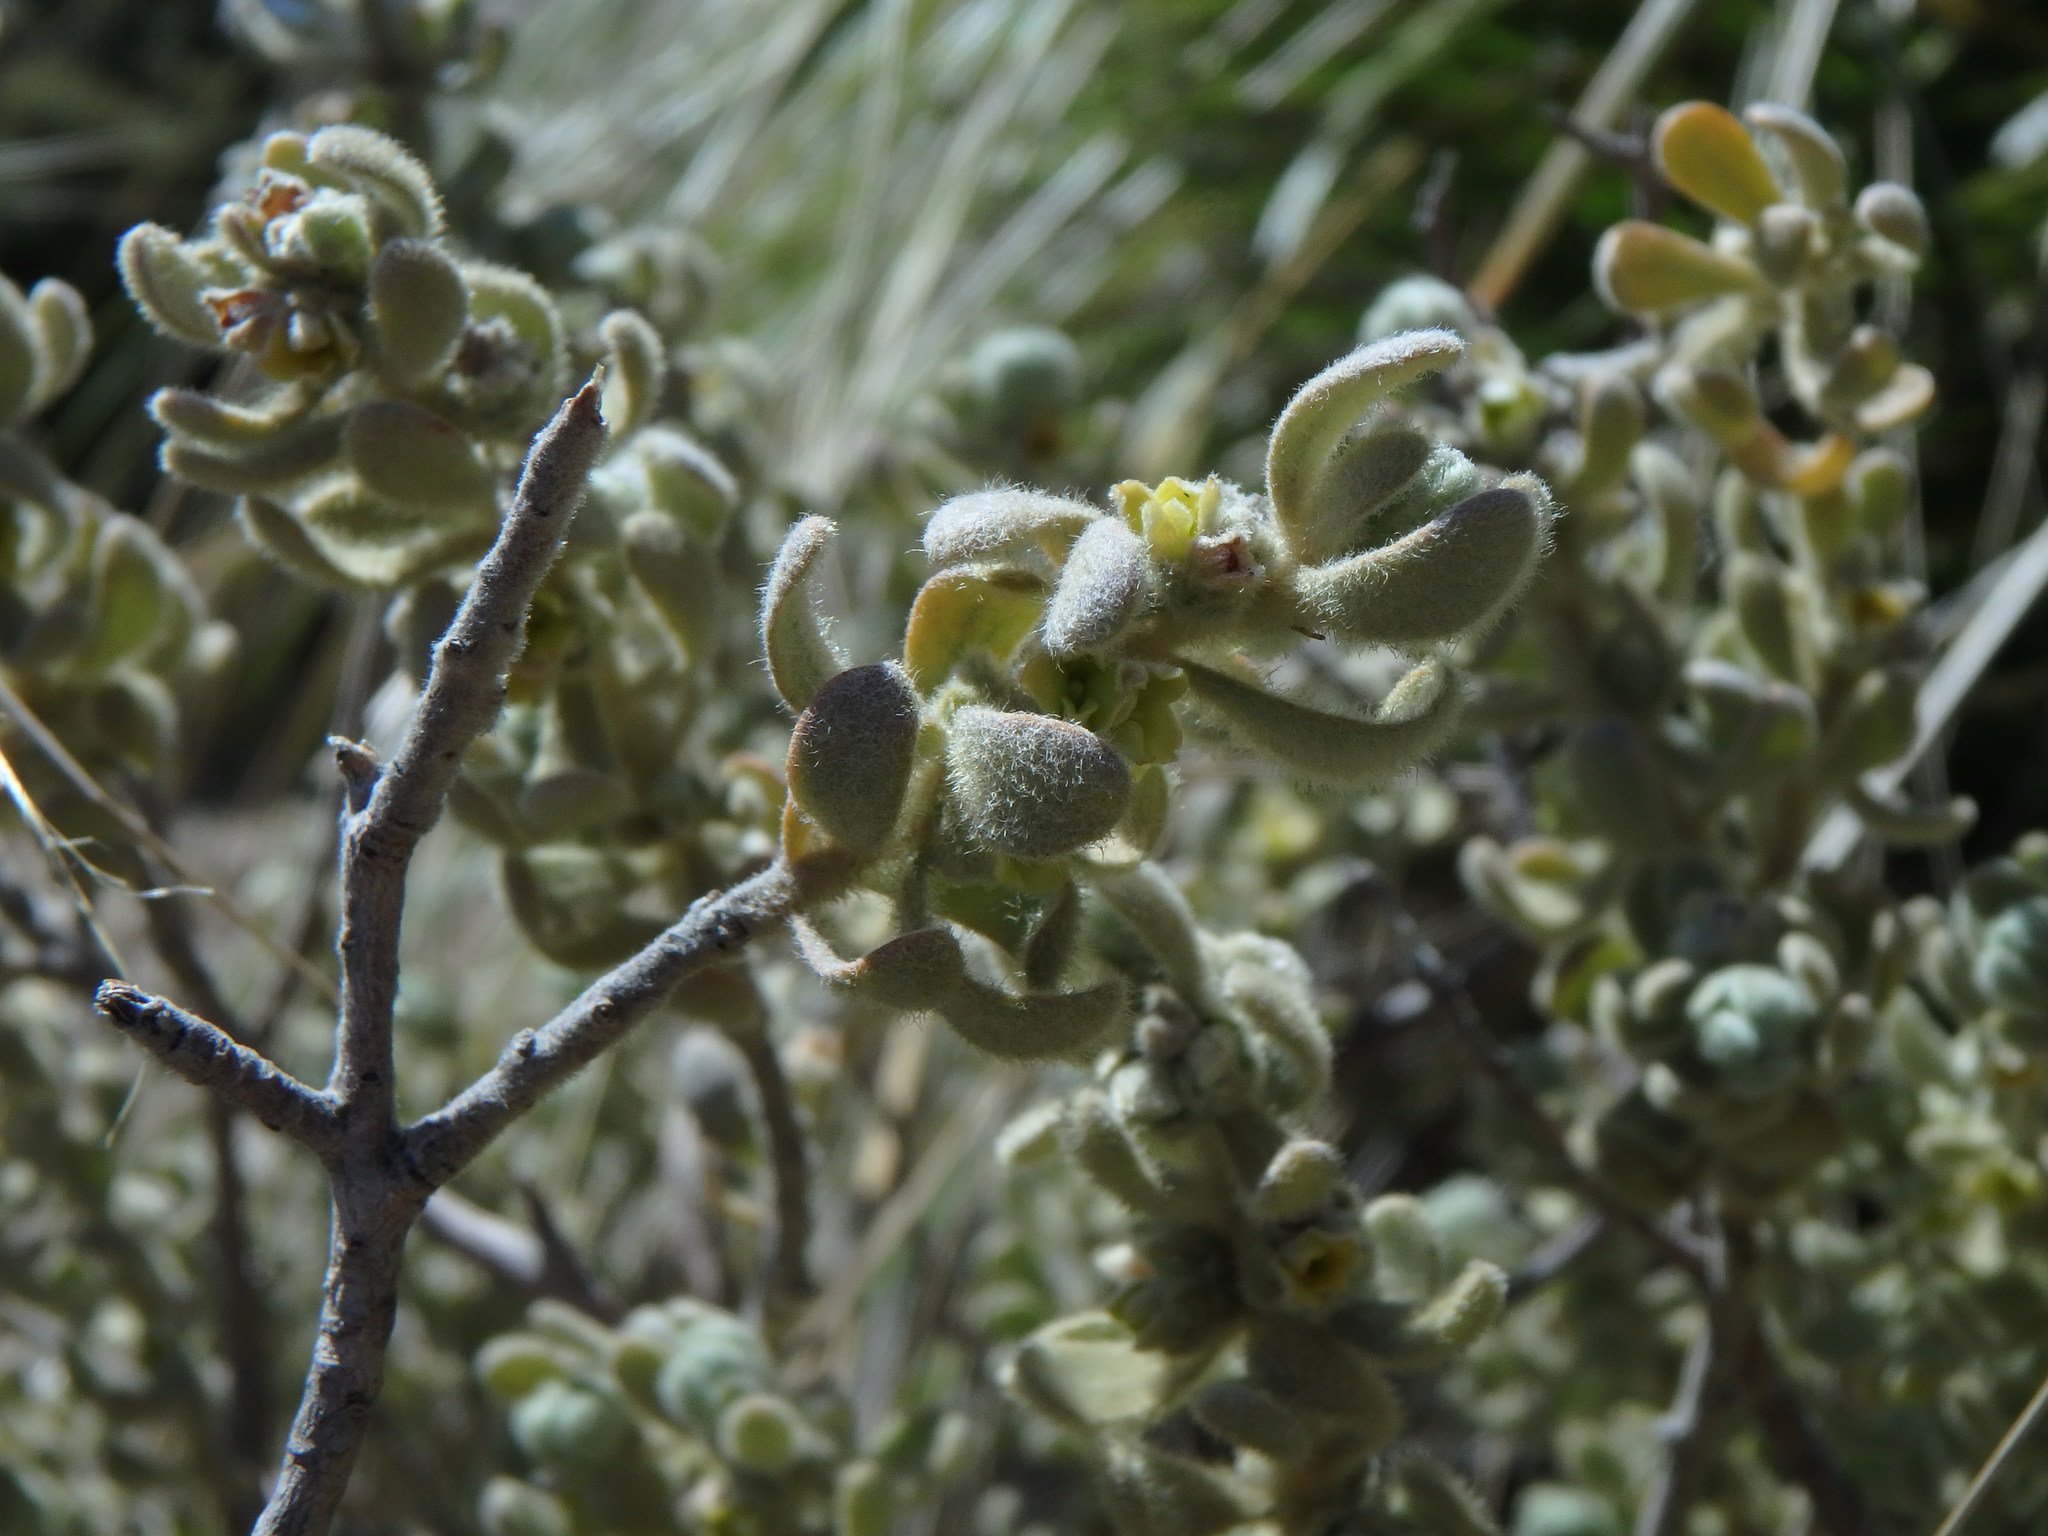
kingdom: Plantae
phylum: Tracheophyta
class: Magnoliopsida
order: Malvales
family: Thymelaeaceae
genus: Thymelaea
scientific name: Thymelaea velutina
